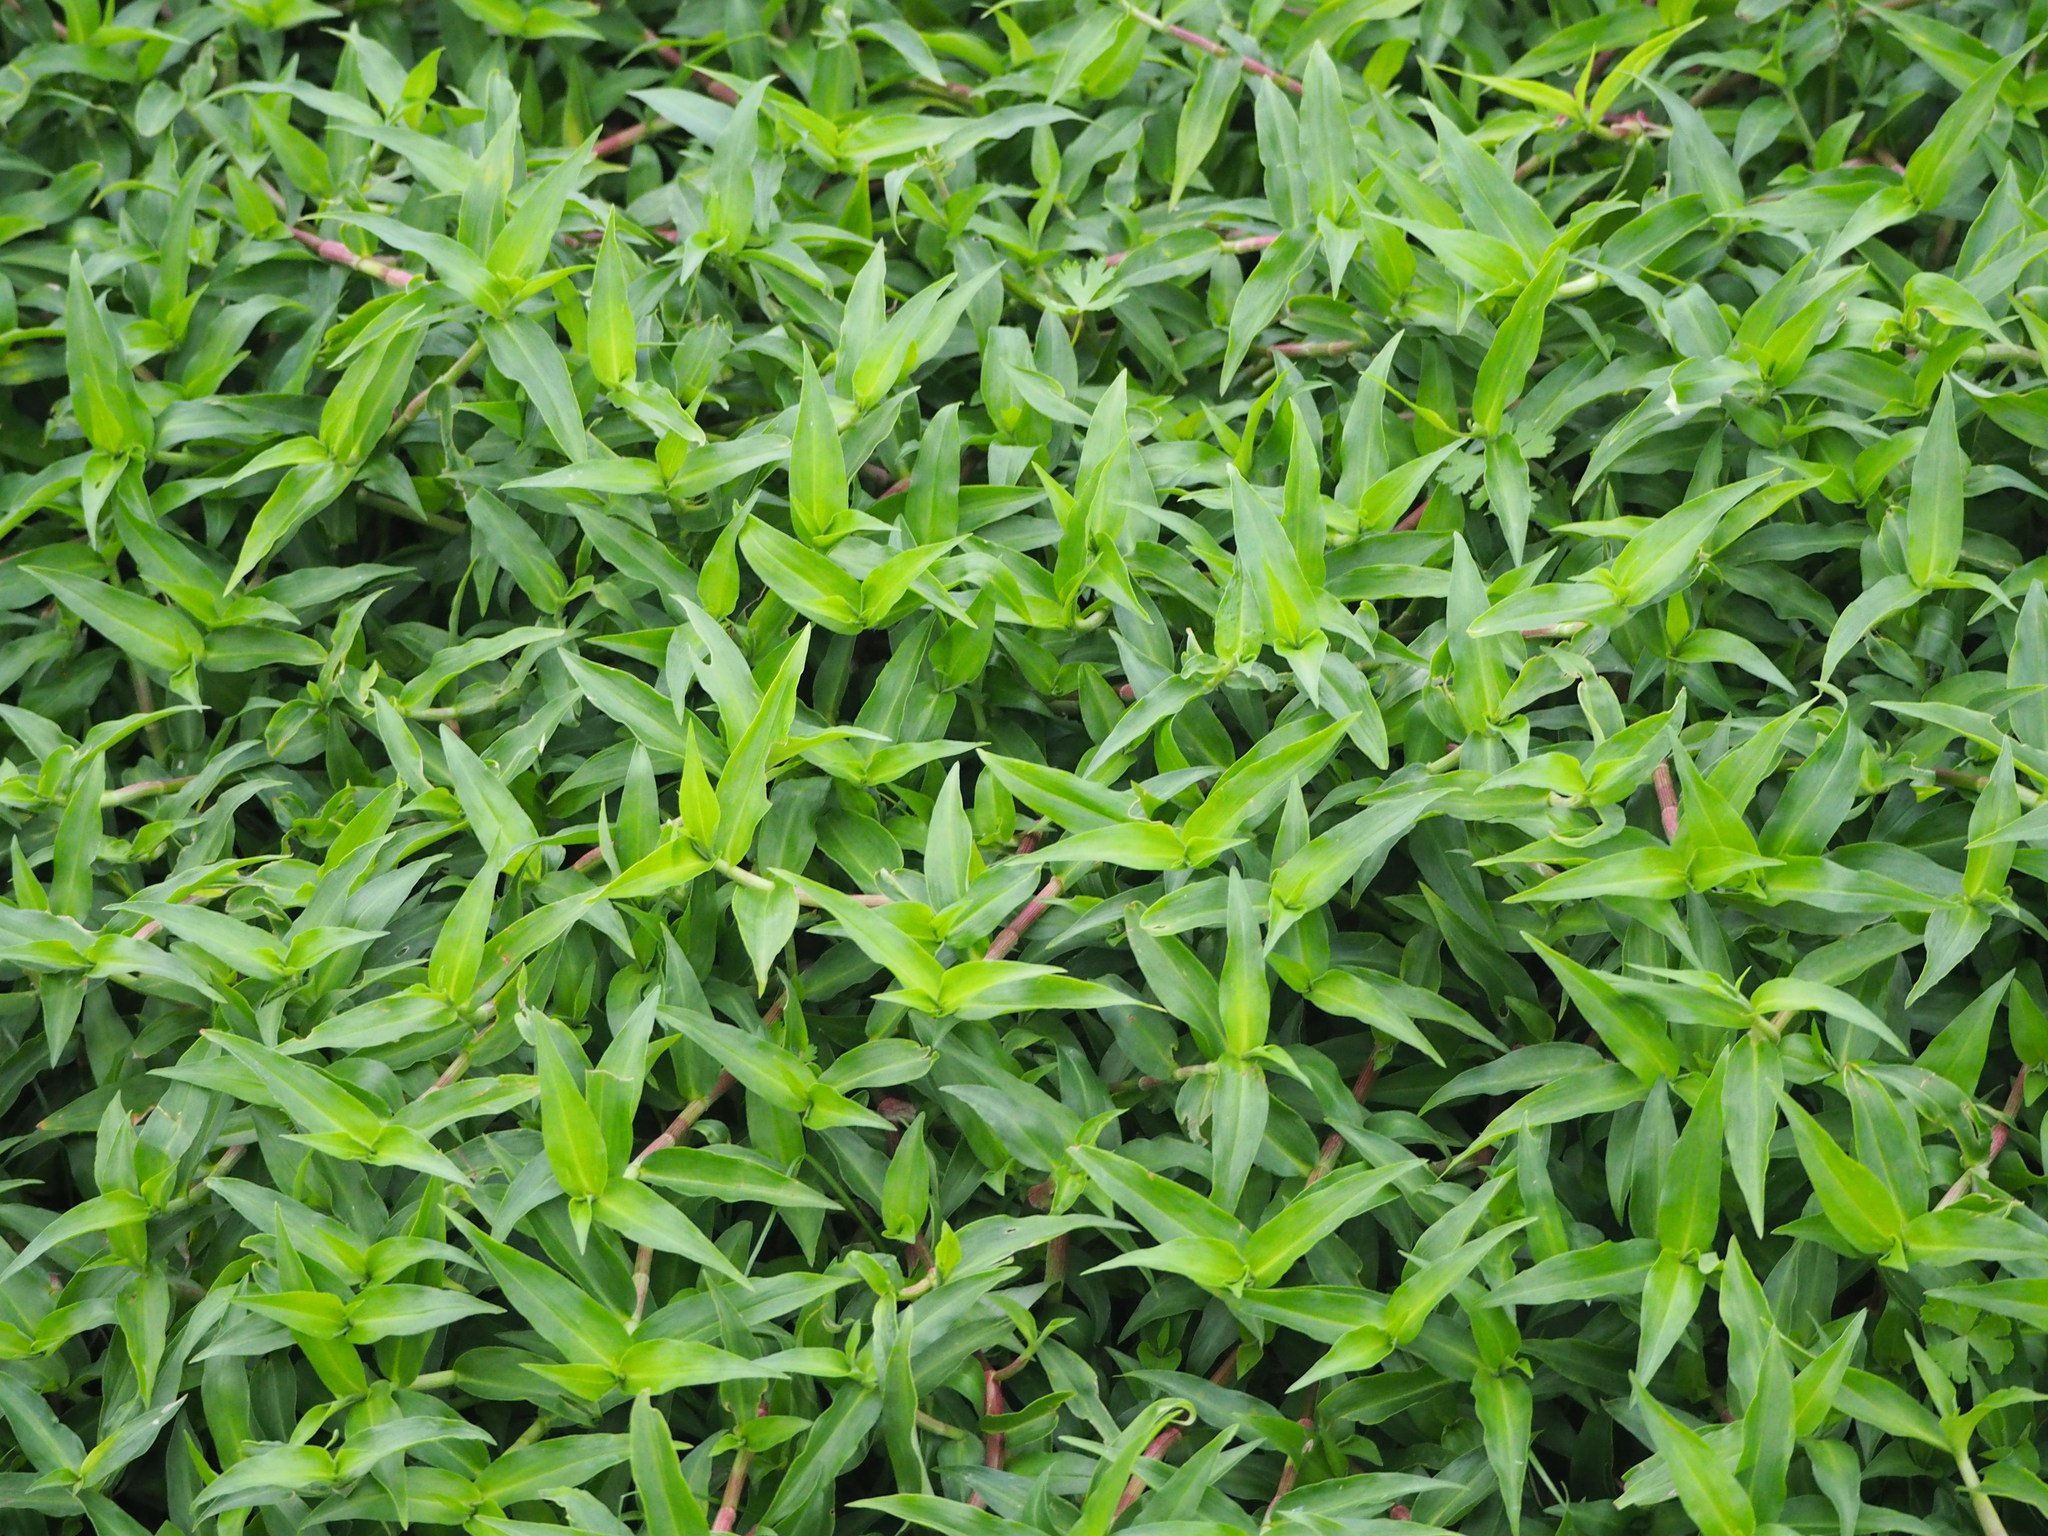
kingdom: Plantae
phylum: Tracheophyta
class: Liliopsida
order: Commelinales
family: Commelinaceae
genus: Commelina
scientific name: Commelina diffusa
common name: Climbing dayflower
